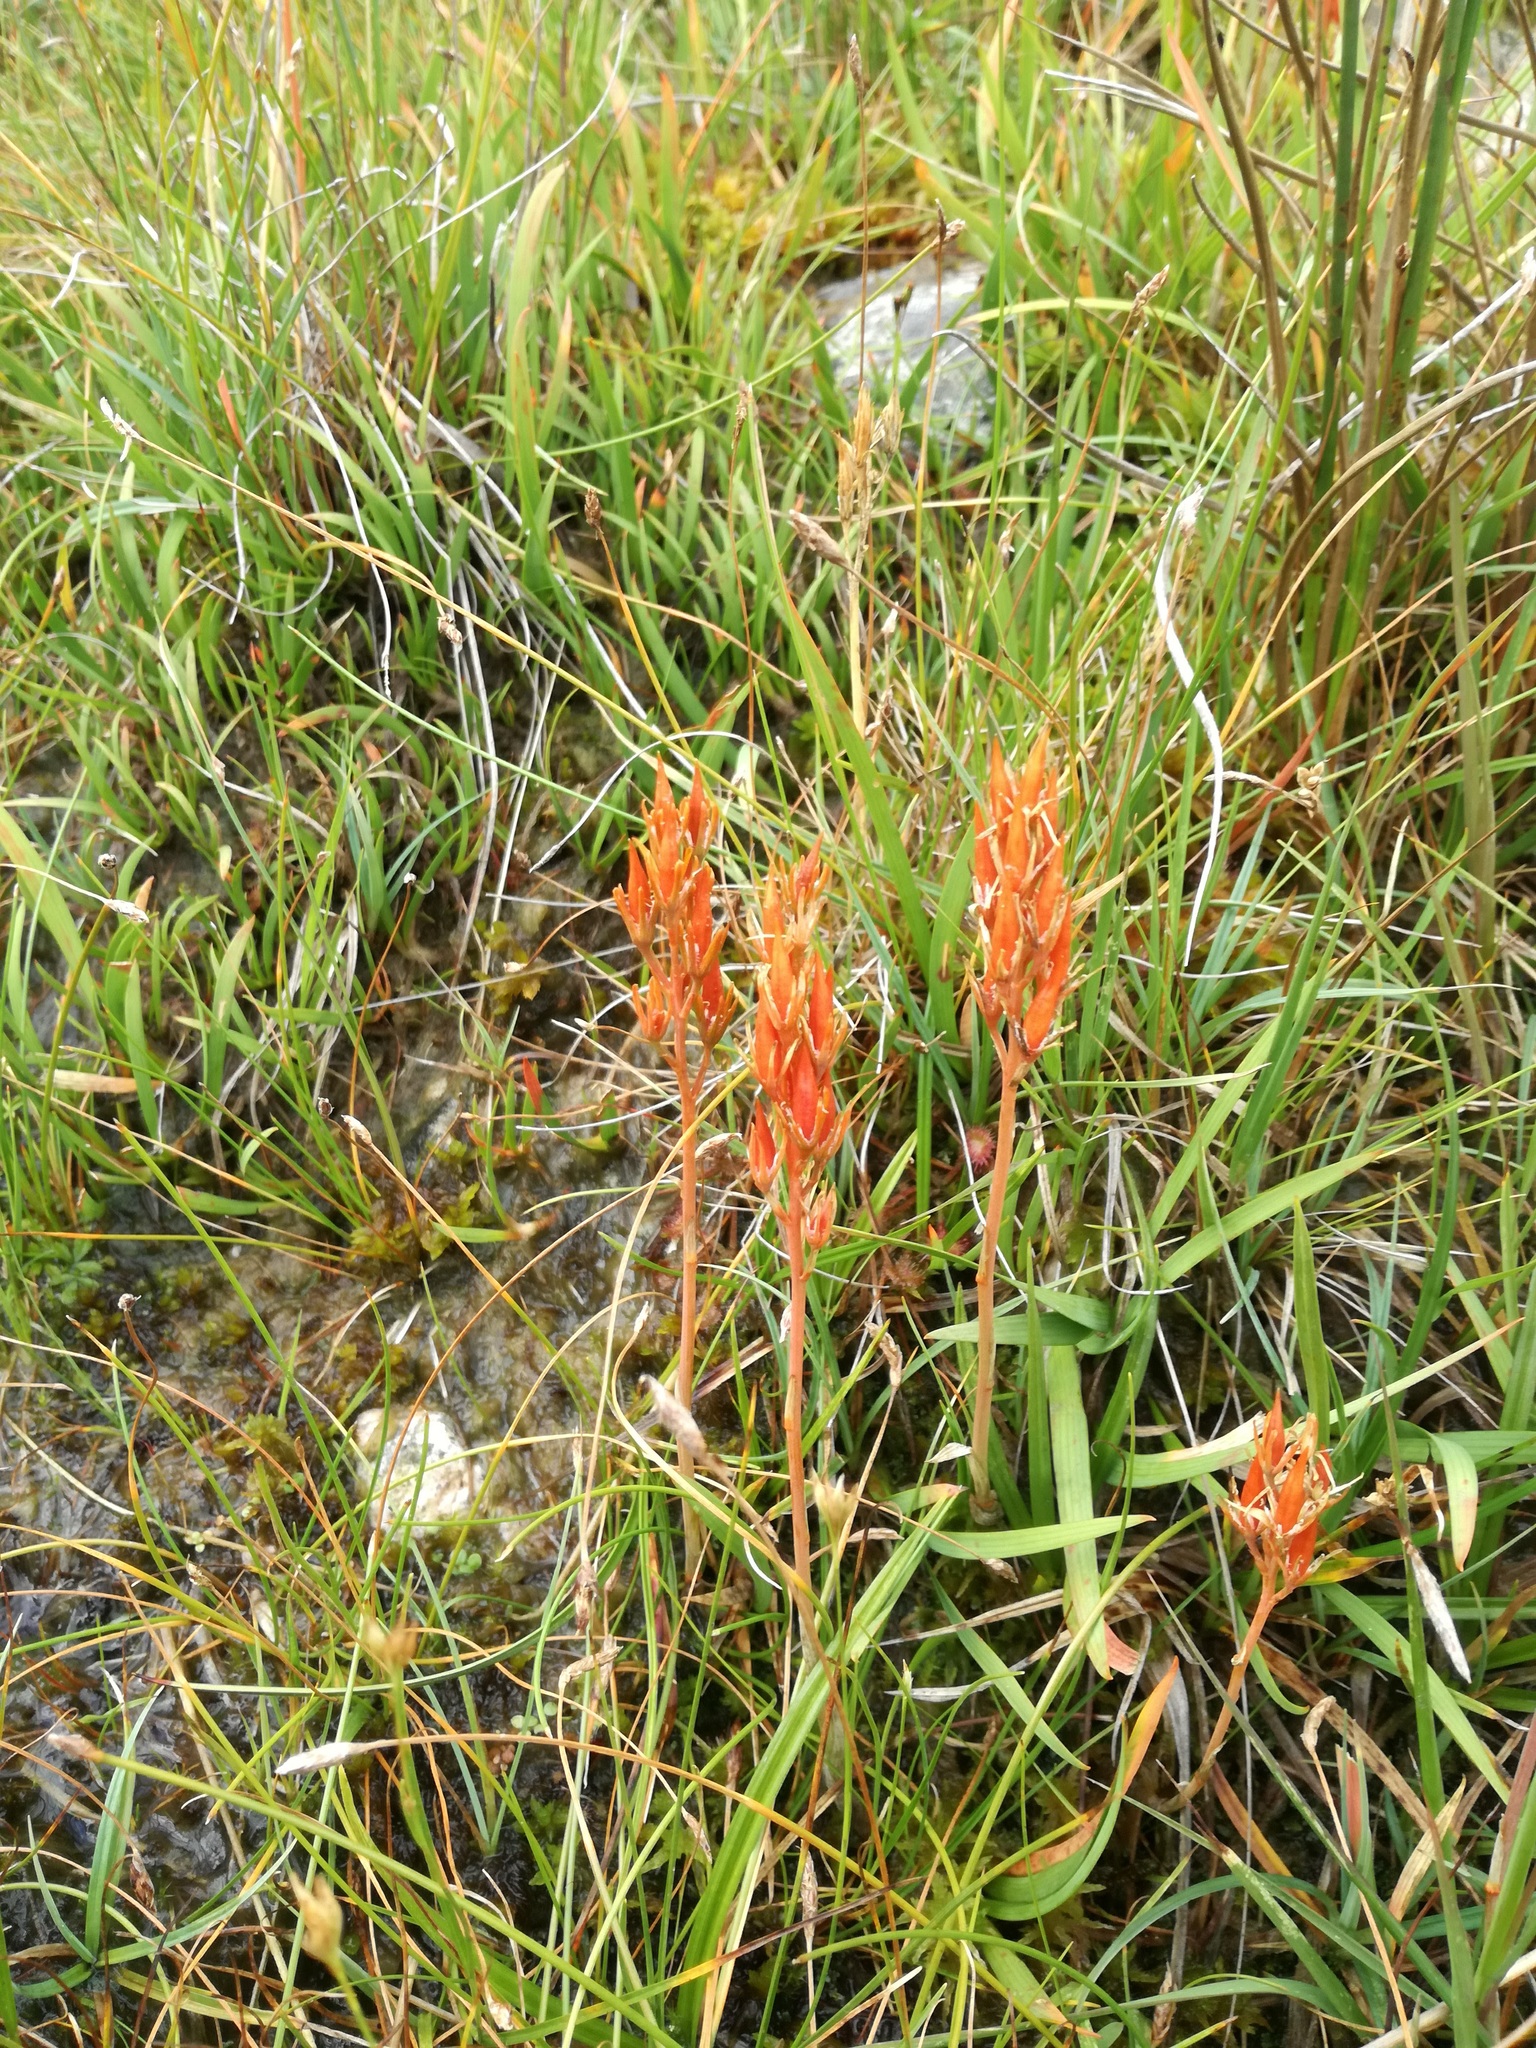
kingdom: Plantae
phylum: Tracheophyta
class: Liliopsida
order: Dioscoreales
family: Nartheciaceae
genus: Narthecium
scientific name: Narthecium ossifragum
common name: Bog asphodel
